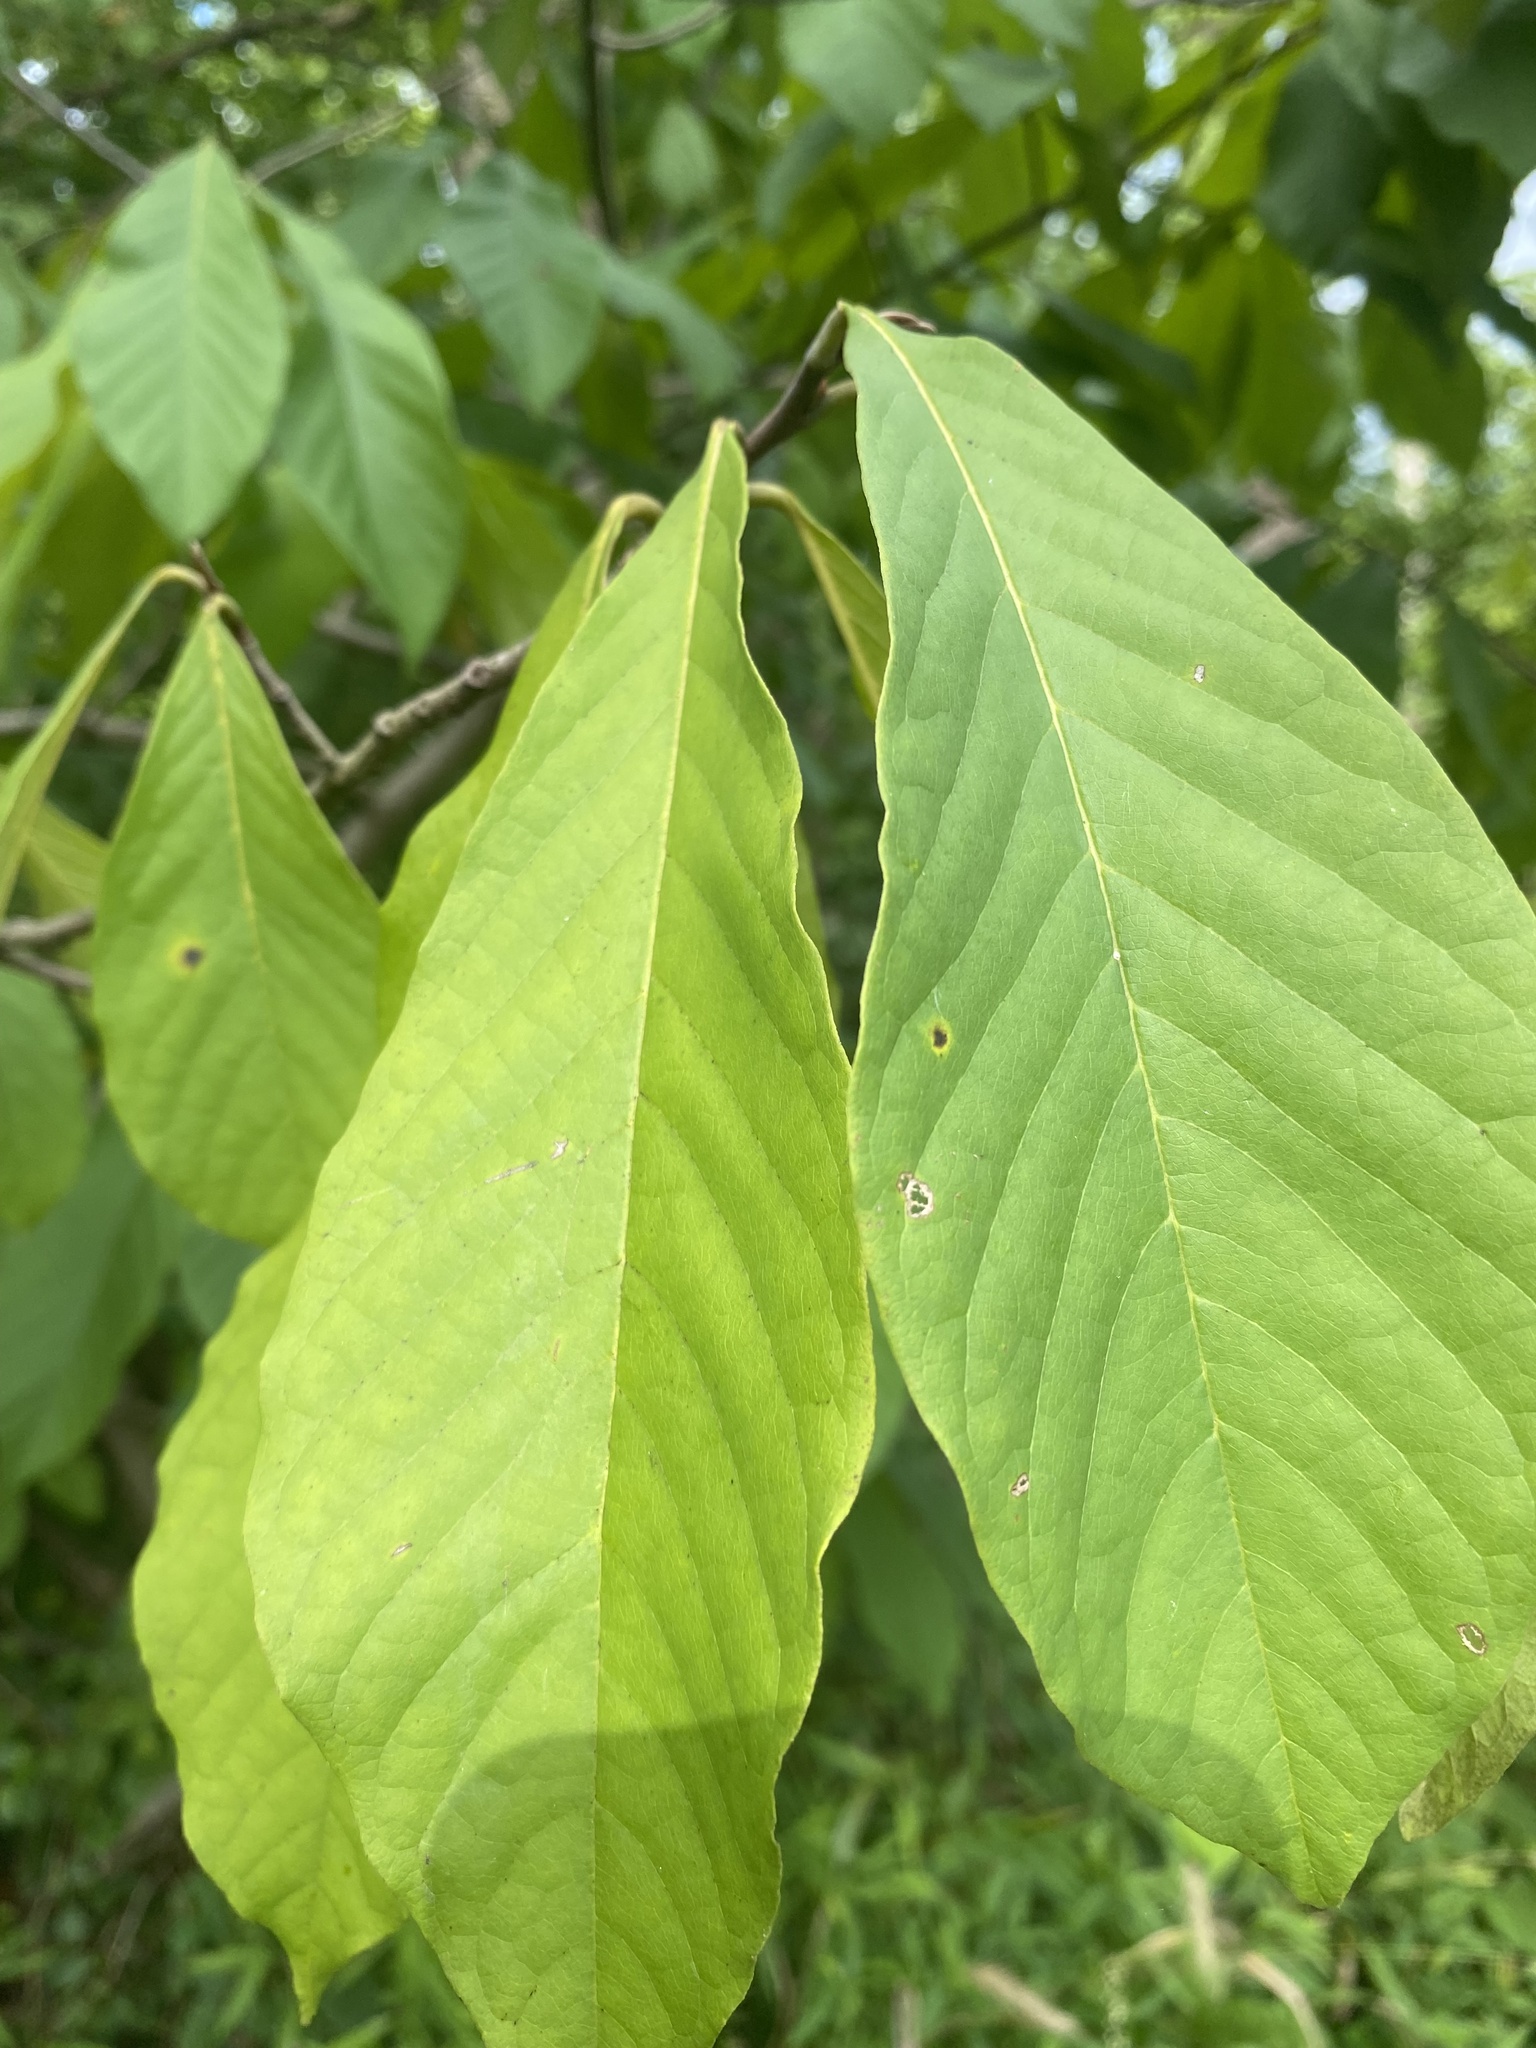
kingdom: Plantae
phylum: Tracheophyta
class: Magnoliopsida
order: Magnoliales
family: Annonaceae
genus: Asimina
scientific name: Asimina triloba
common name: Dog-banana
